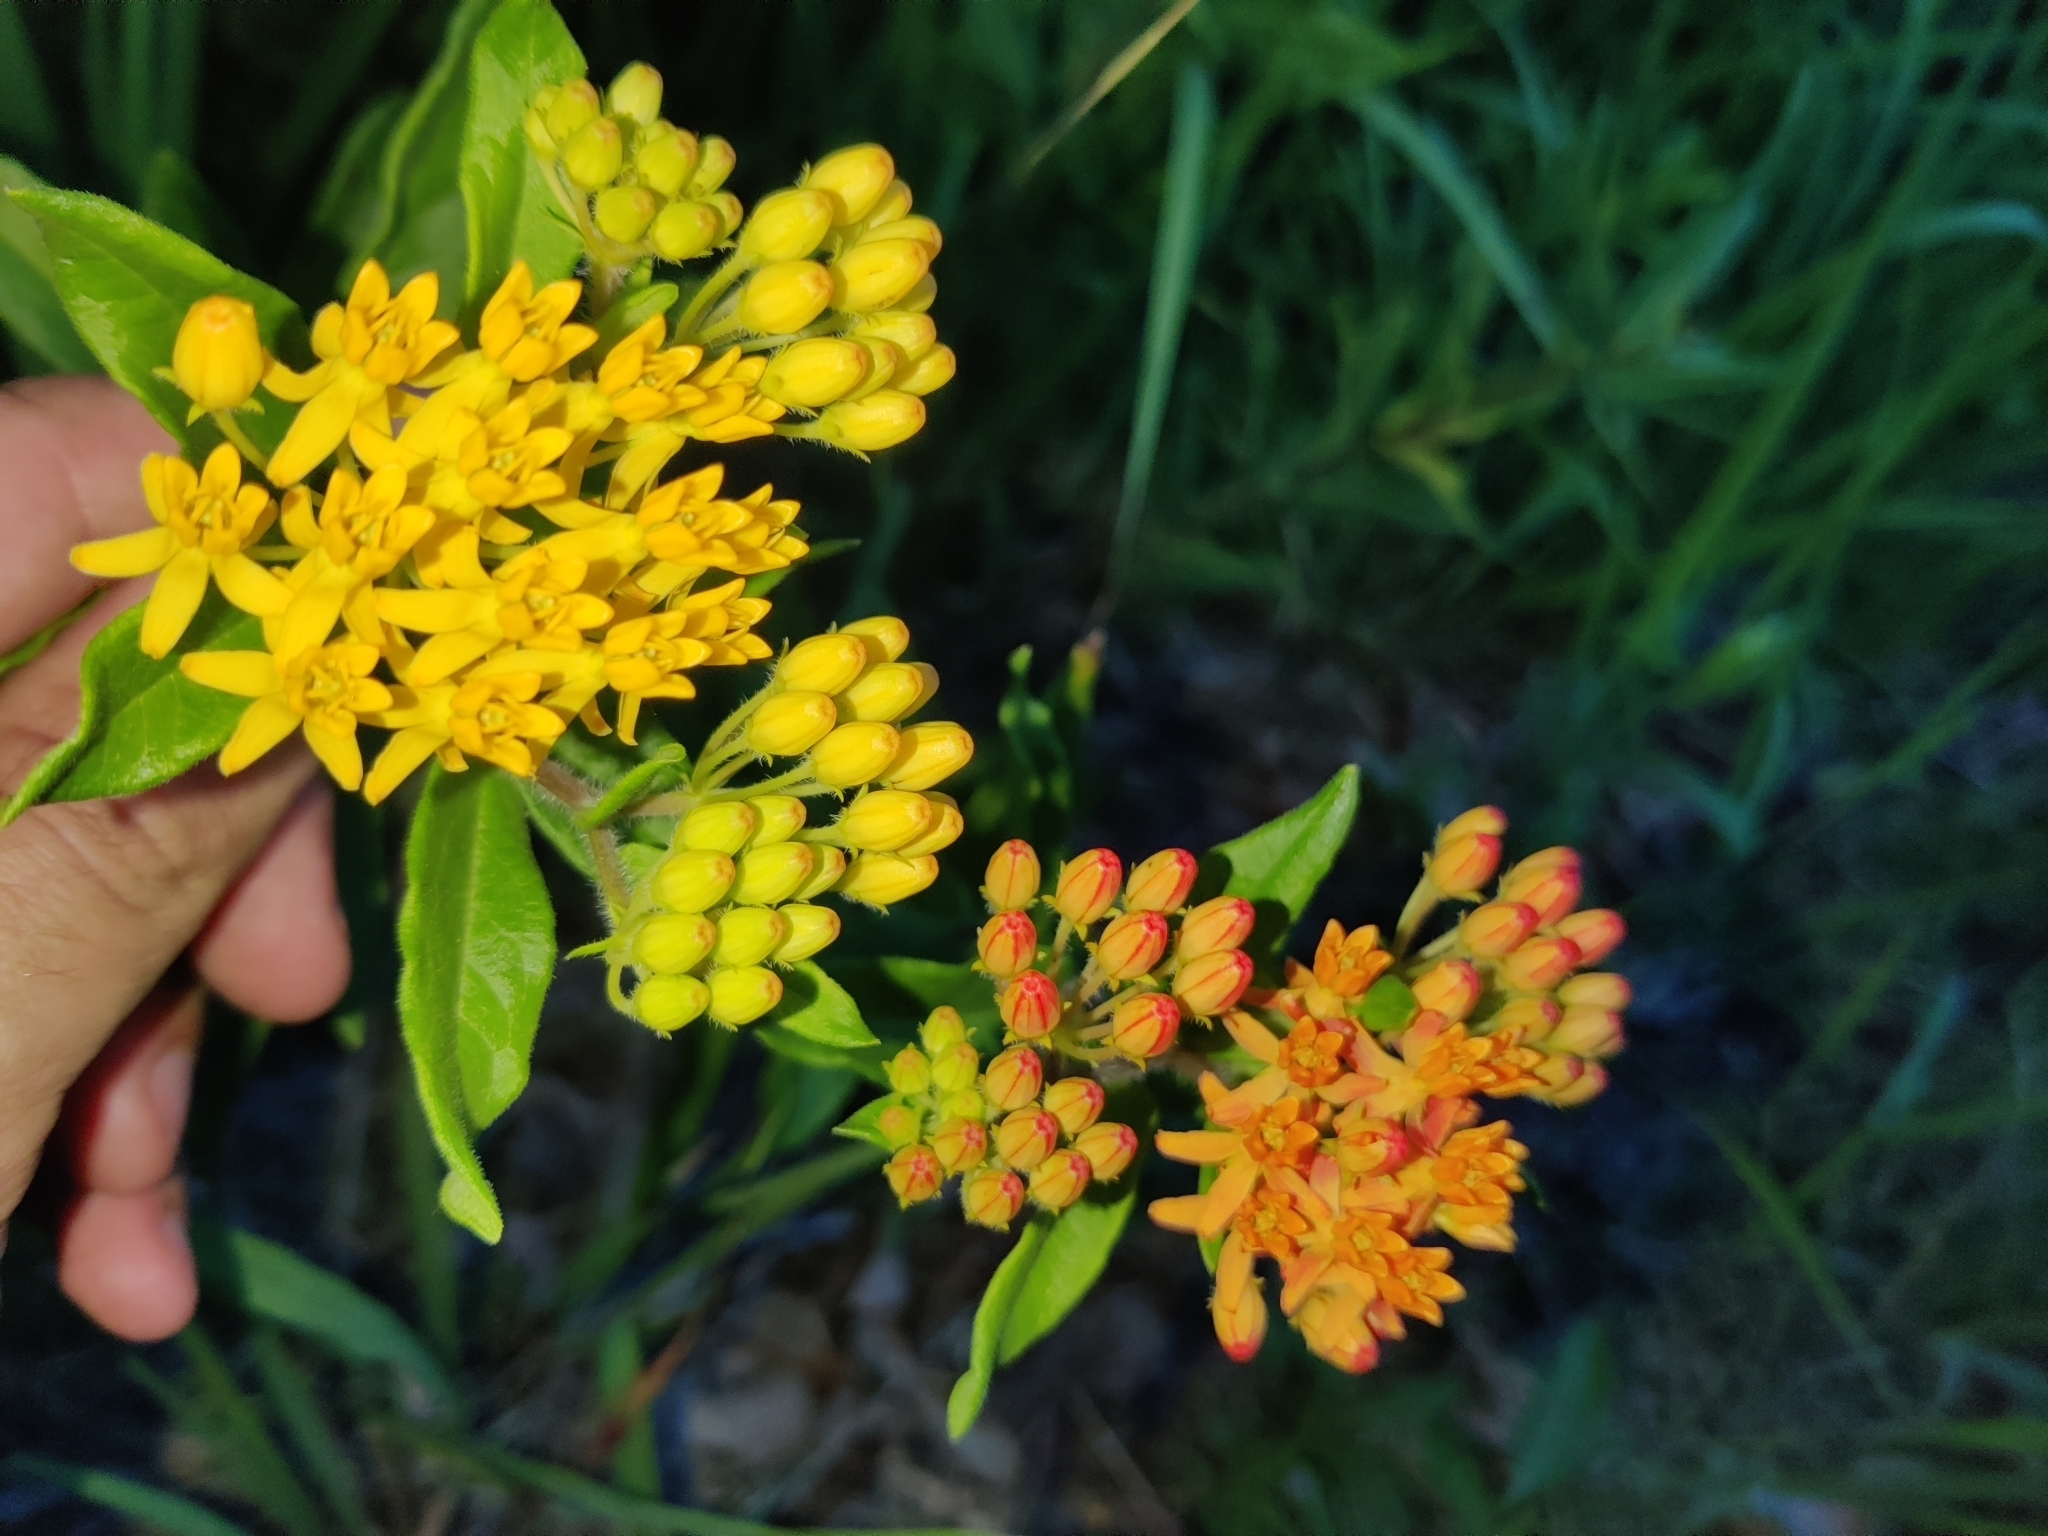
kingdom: Plantae
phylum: Tracheophyta
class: Magnoliopsida
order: Gentianales
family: Apocynaceae
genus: Asclepias
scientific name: Asclepias tuberosa
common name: Butterfly milkweed
